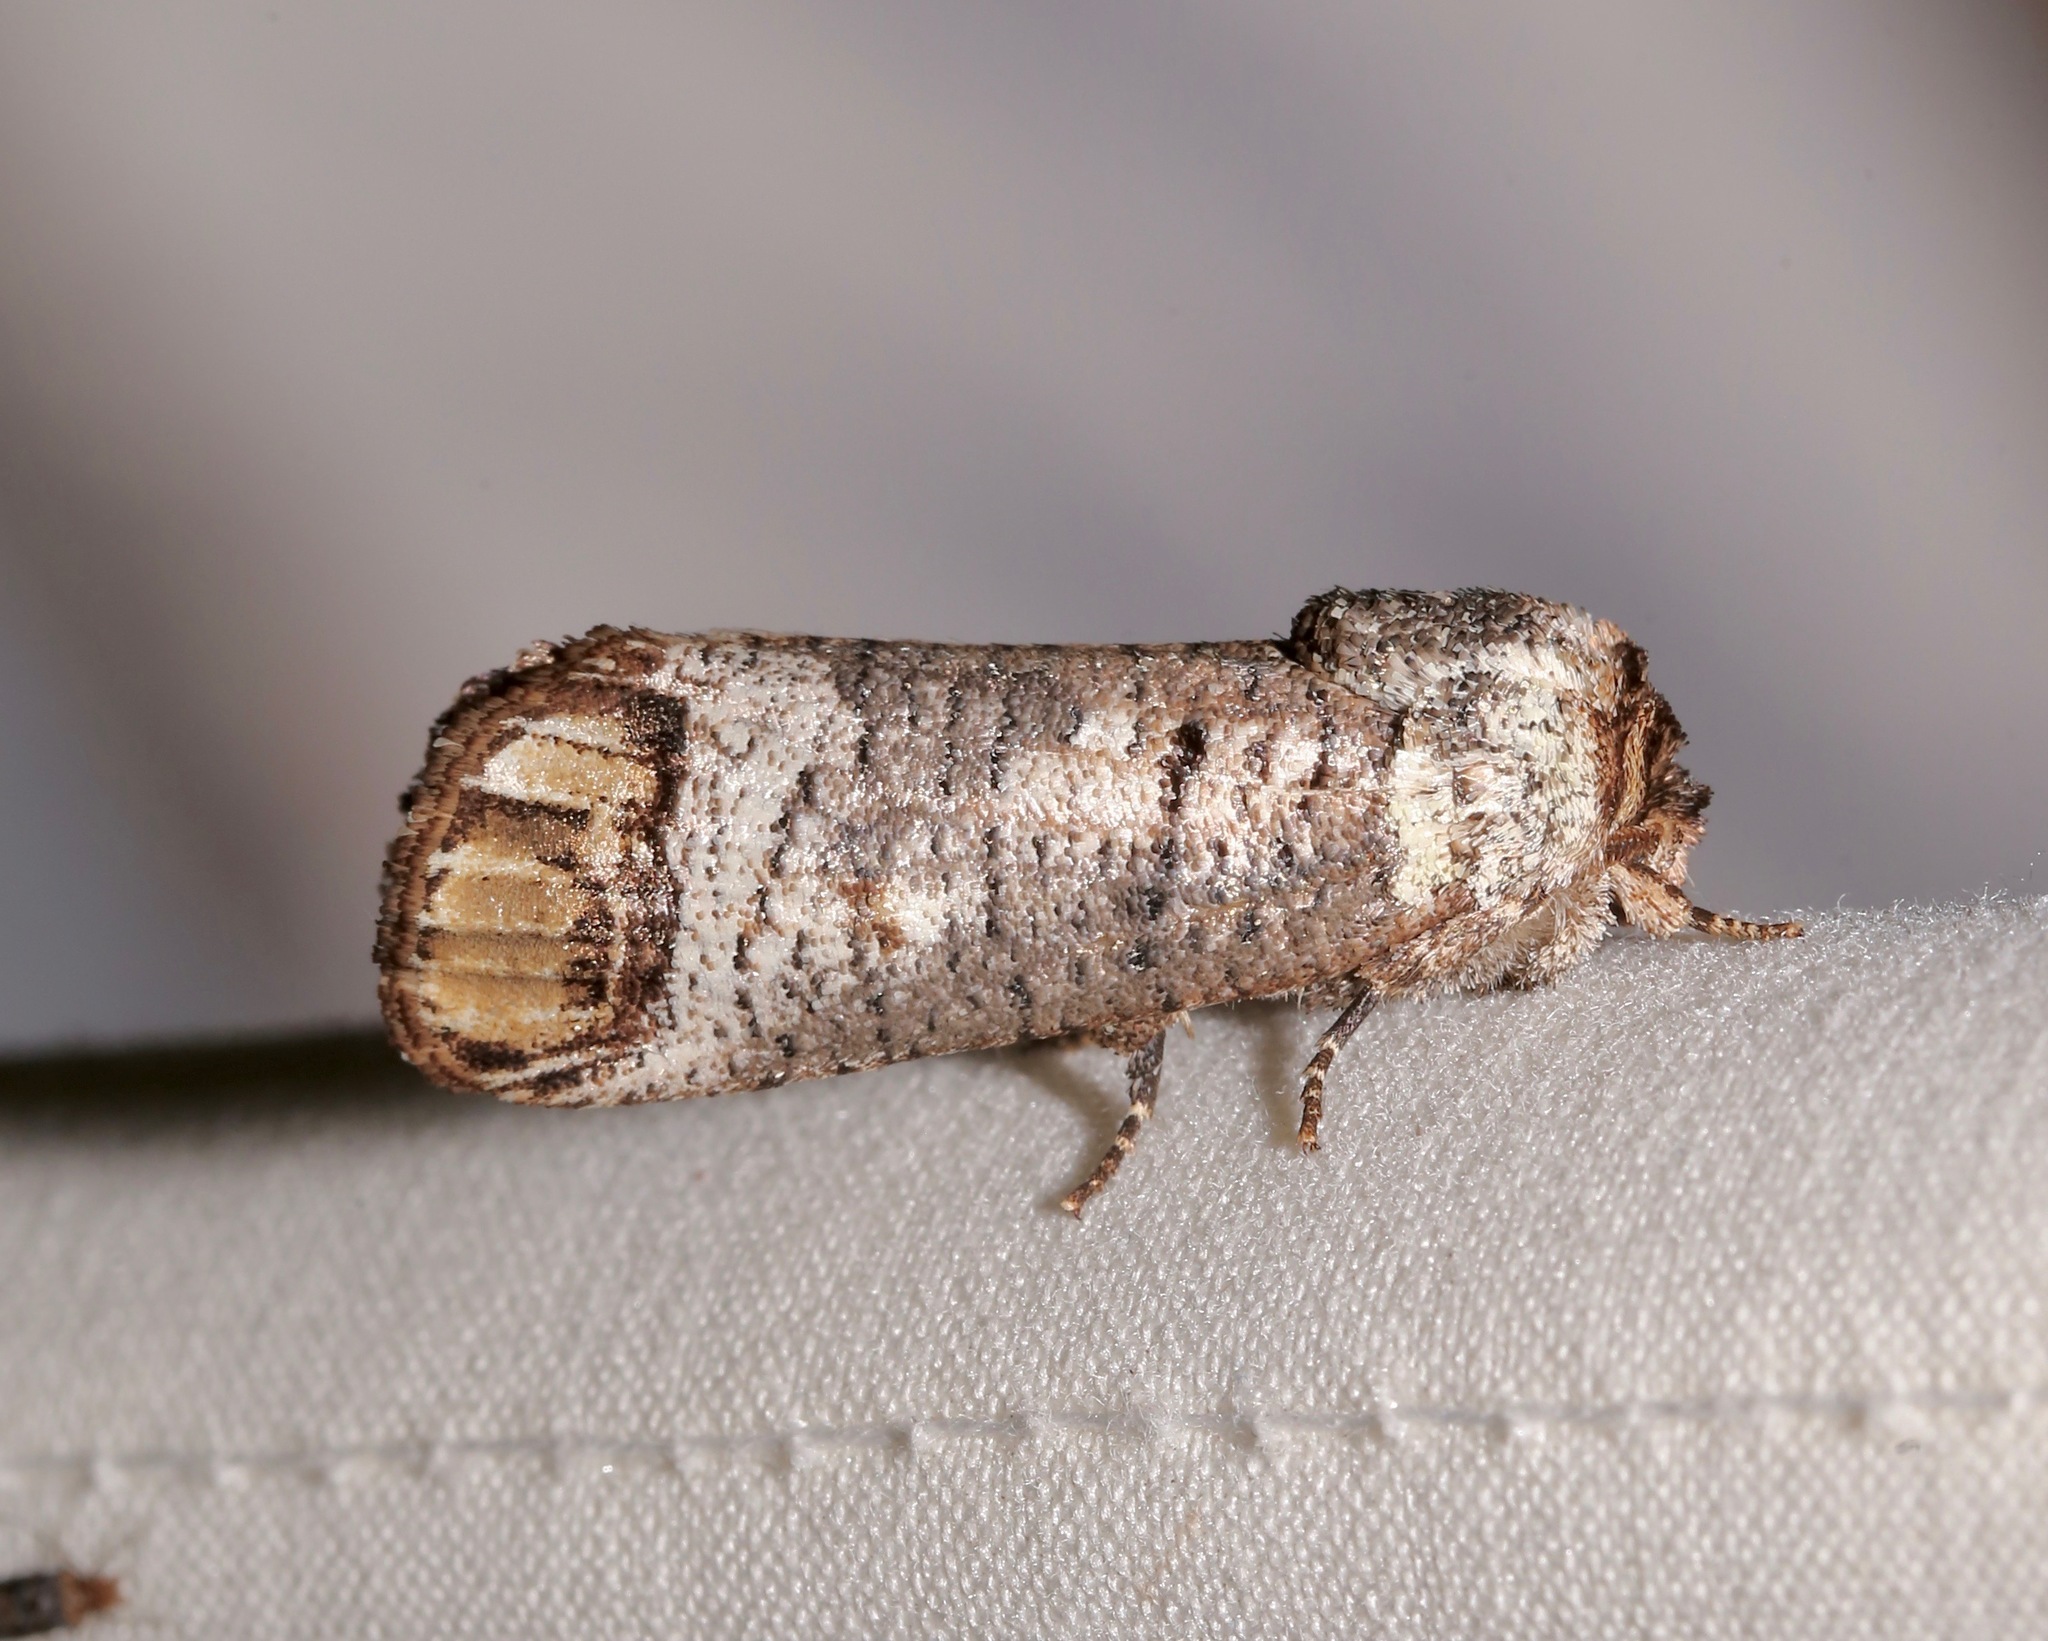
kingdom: Animalia
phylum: Arthropoda
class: Insecta
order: Lepidoptera
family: Cossidae
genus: Cossula
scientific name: Cossula magnifica
